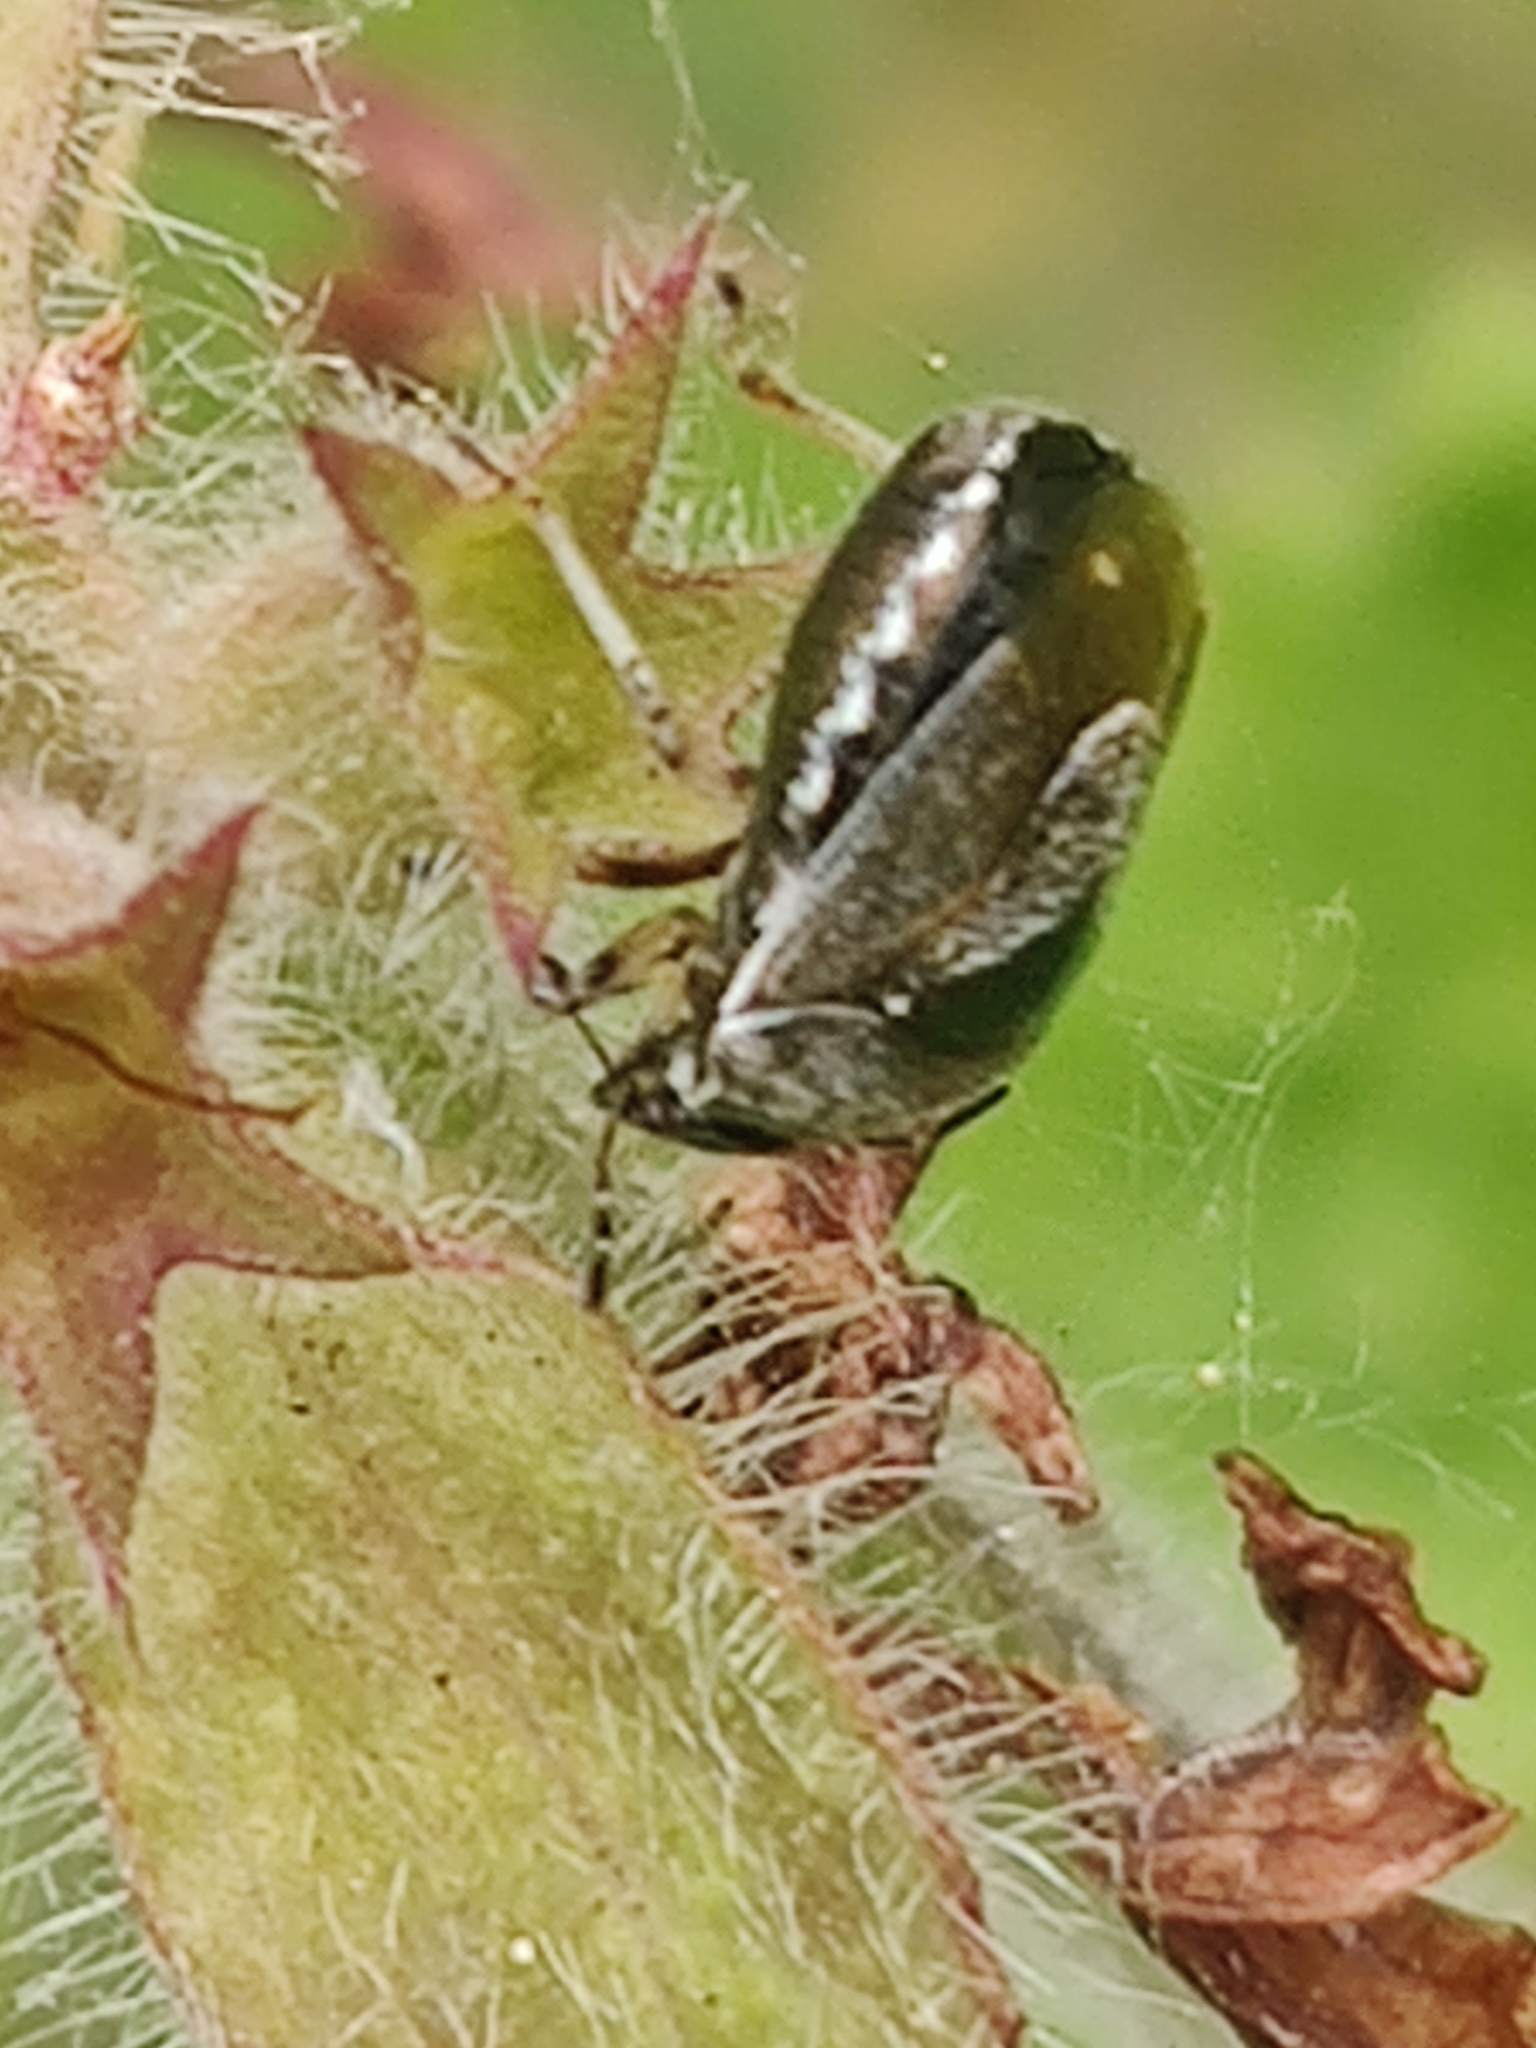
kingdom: Animalia
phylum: Arthropoda
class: Insecta
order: Hemiptera
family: Pentatomidae
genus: Eysarcoris
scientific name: Eysarcoris venustissimus
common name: Woundwort shieldbug
